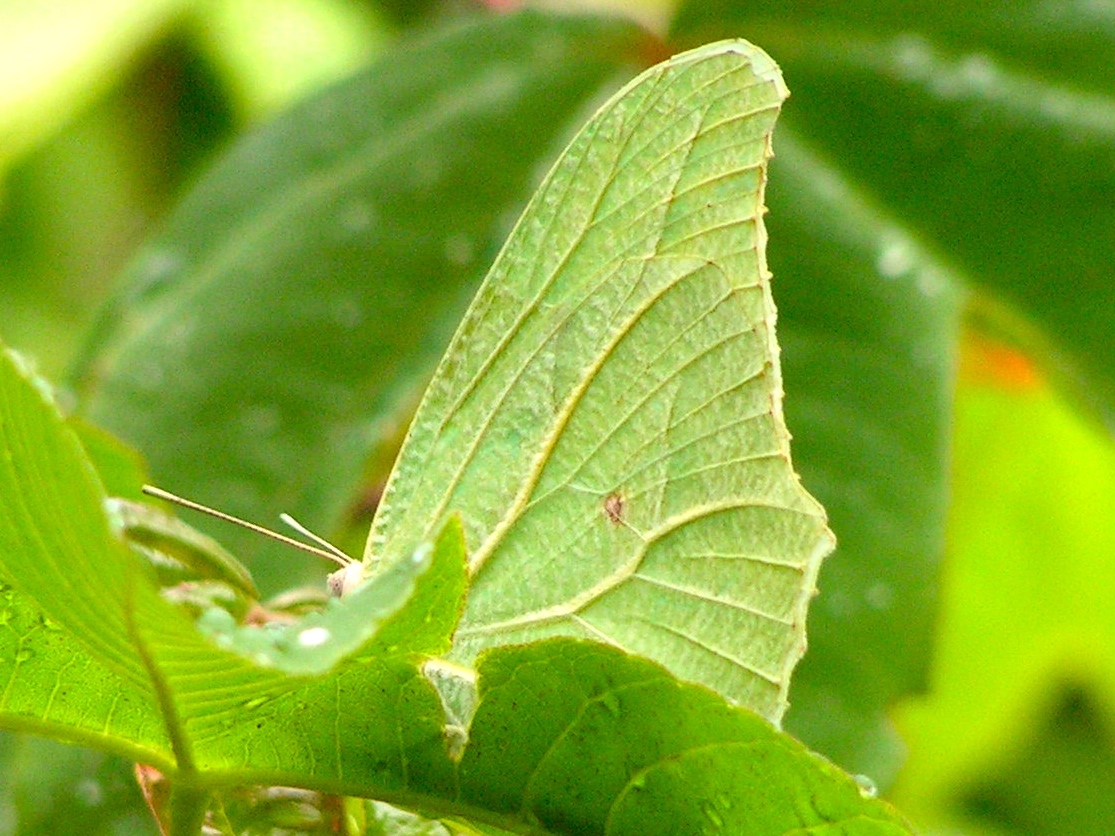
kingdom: Animalia
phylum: Arthropoda
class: Insecta
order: Lepidoptera
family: Pieridae
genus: Anteos
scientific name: Anteos clorinde
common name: White angled sulphur
